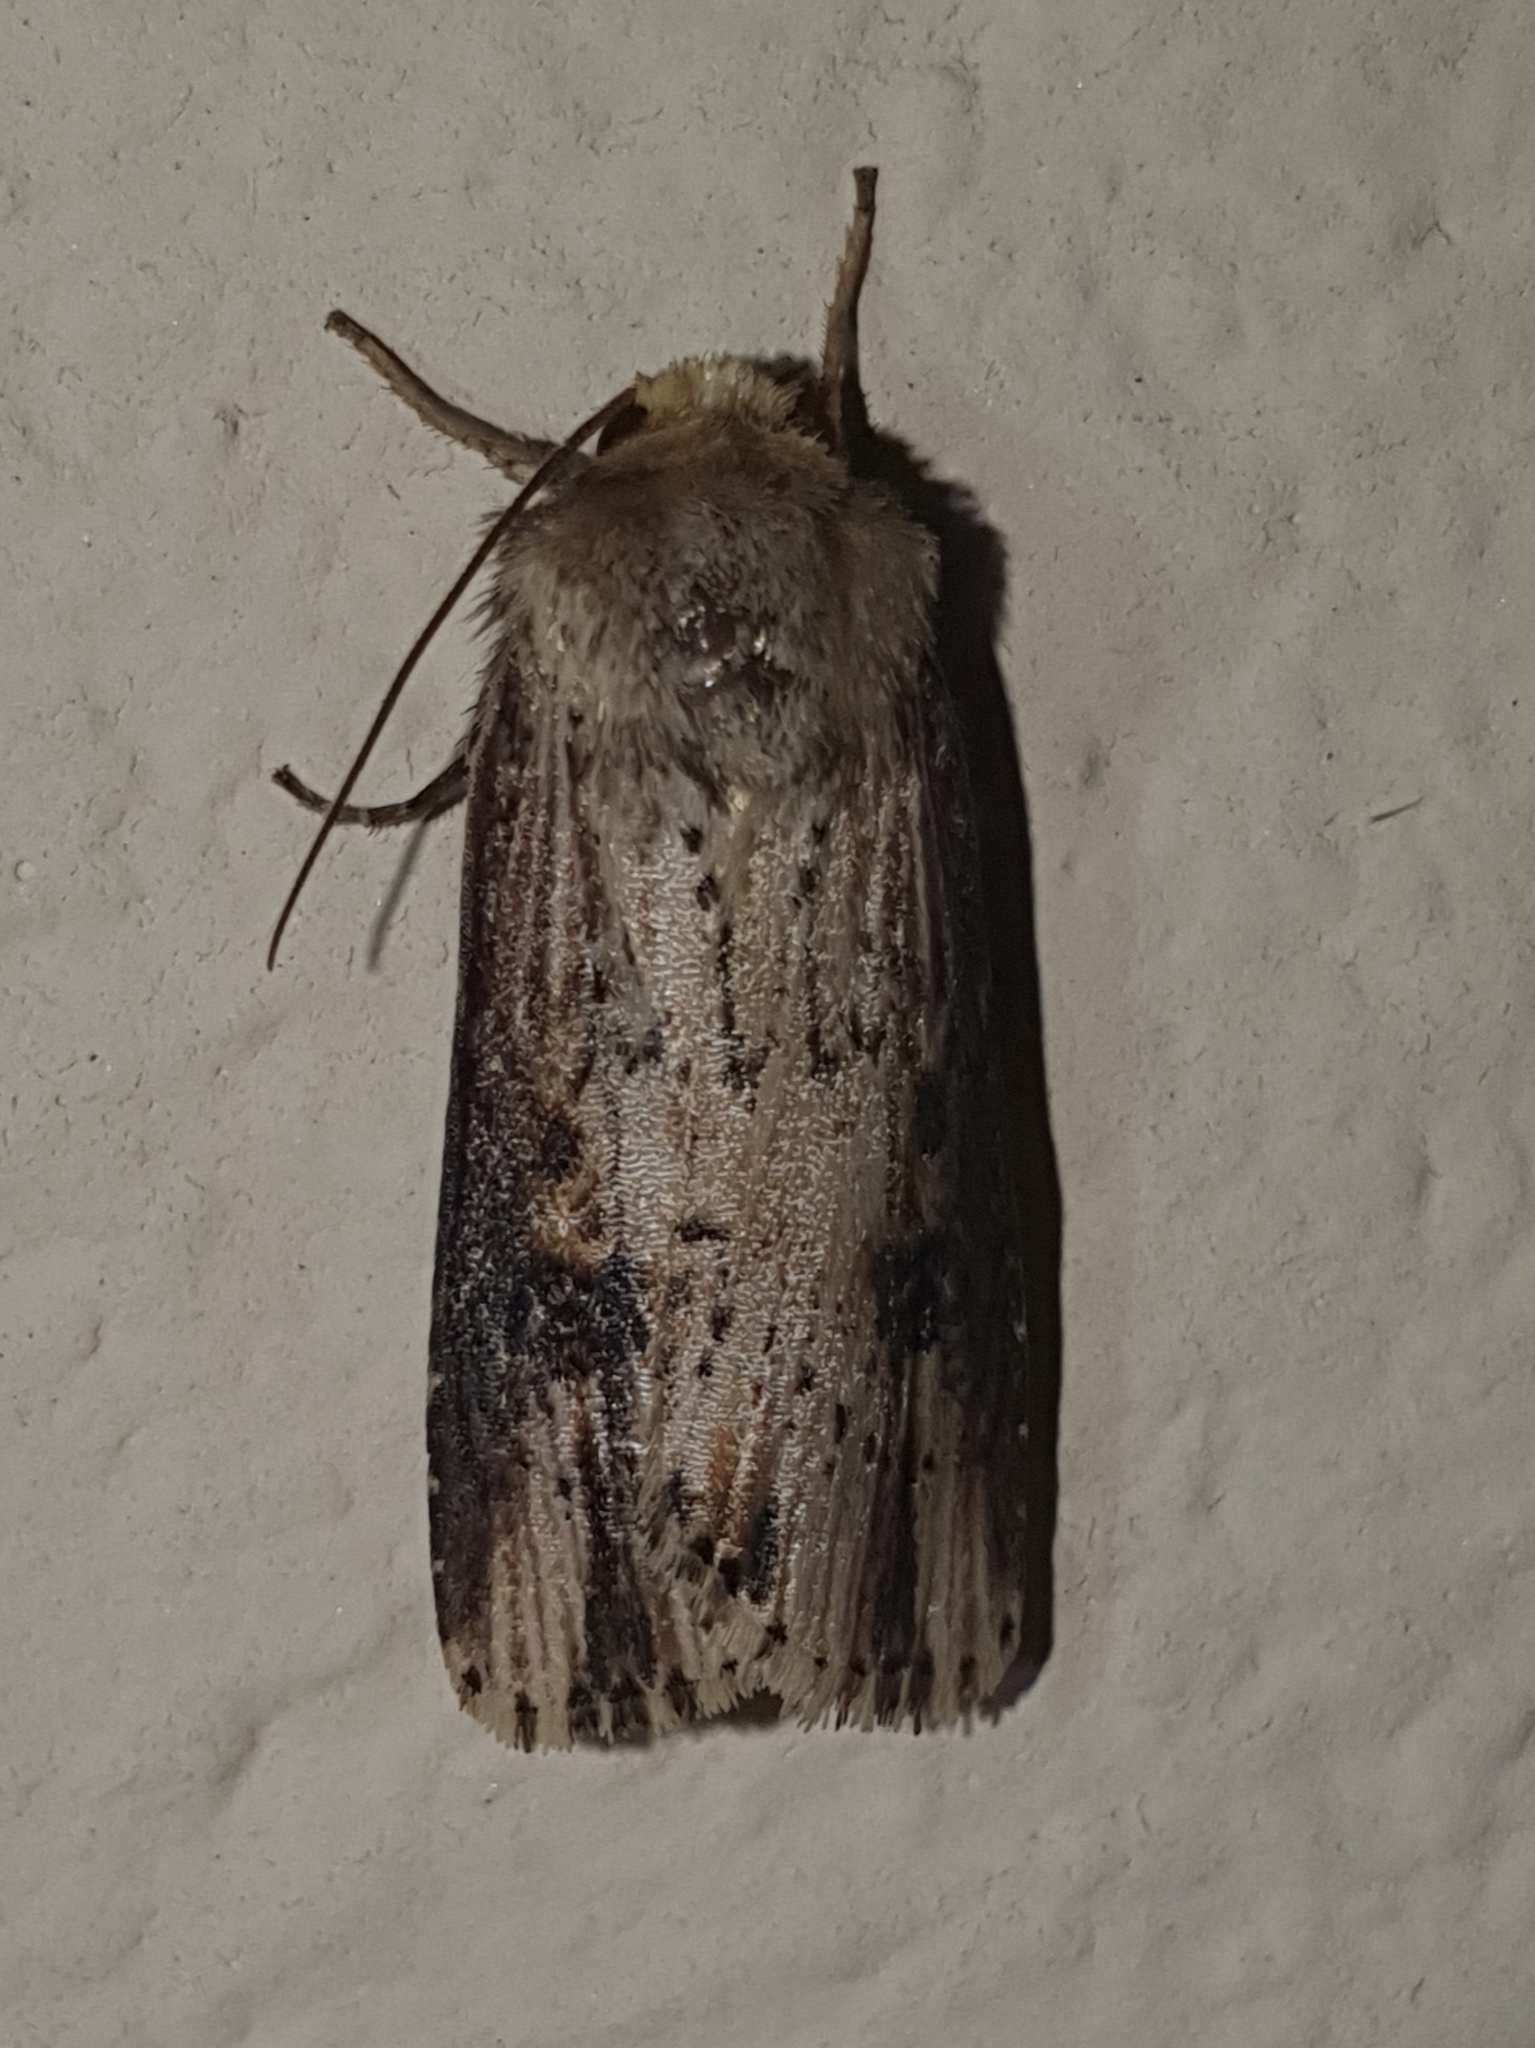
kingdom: Animalia
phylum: Arthropoda
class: Insecta
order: Lepidoptera
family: Noctuidae
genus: Axylia
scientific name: Axylia putris
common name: Flame
